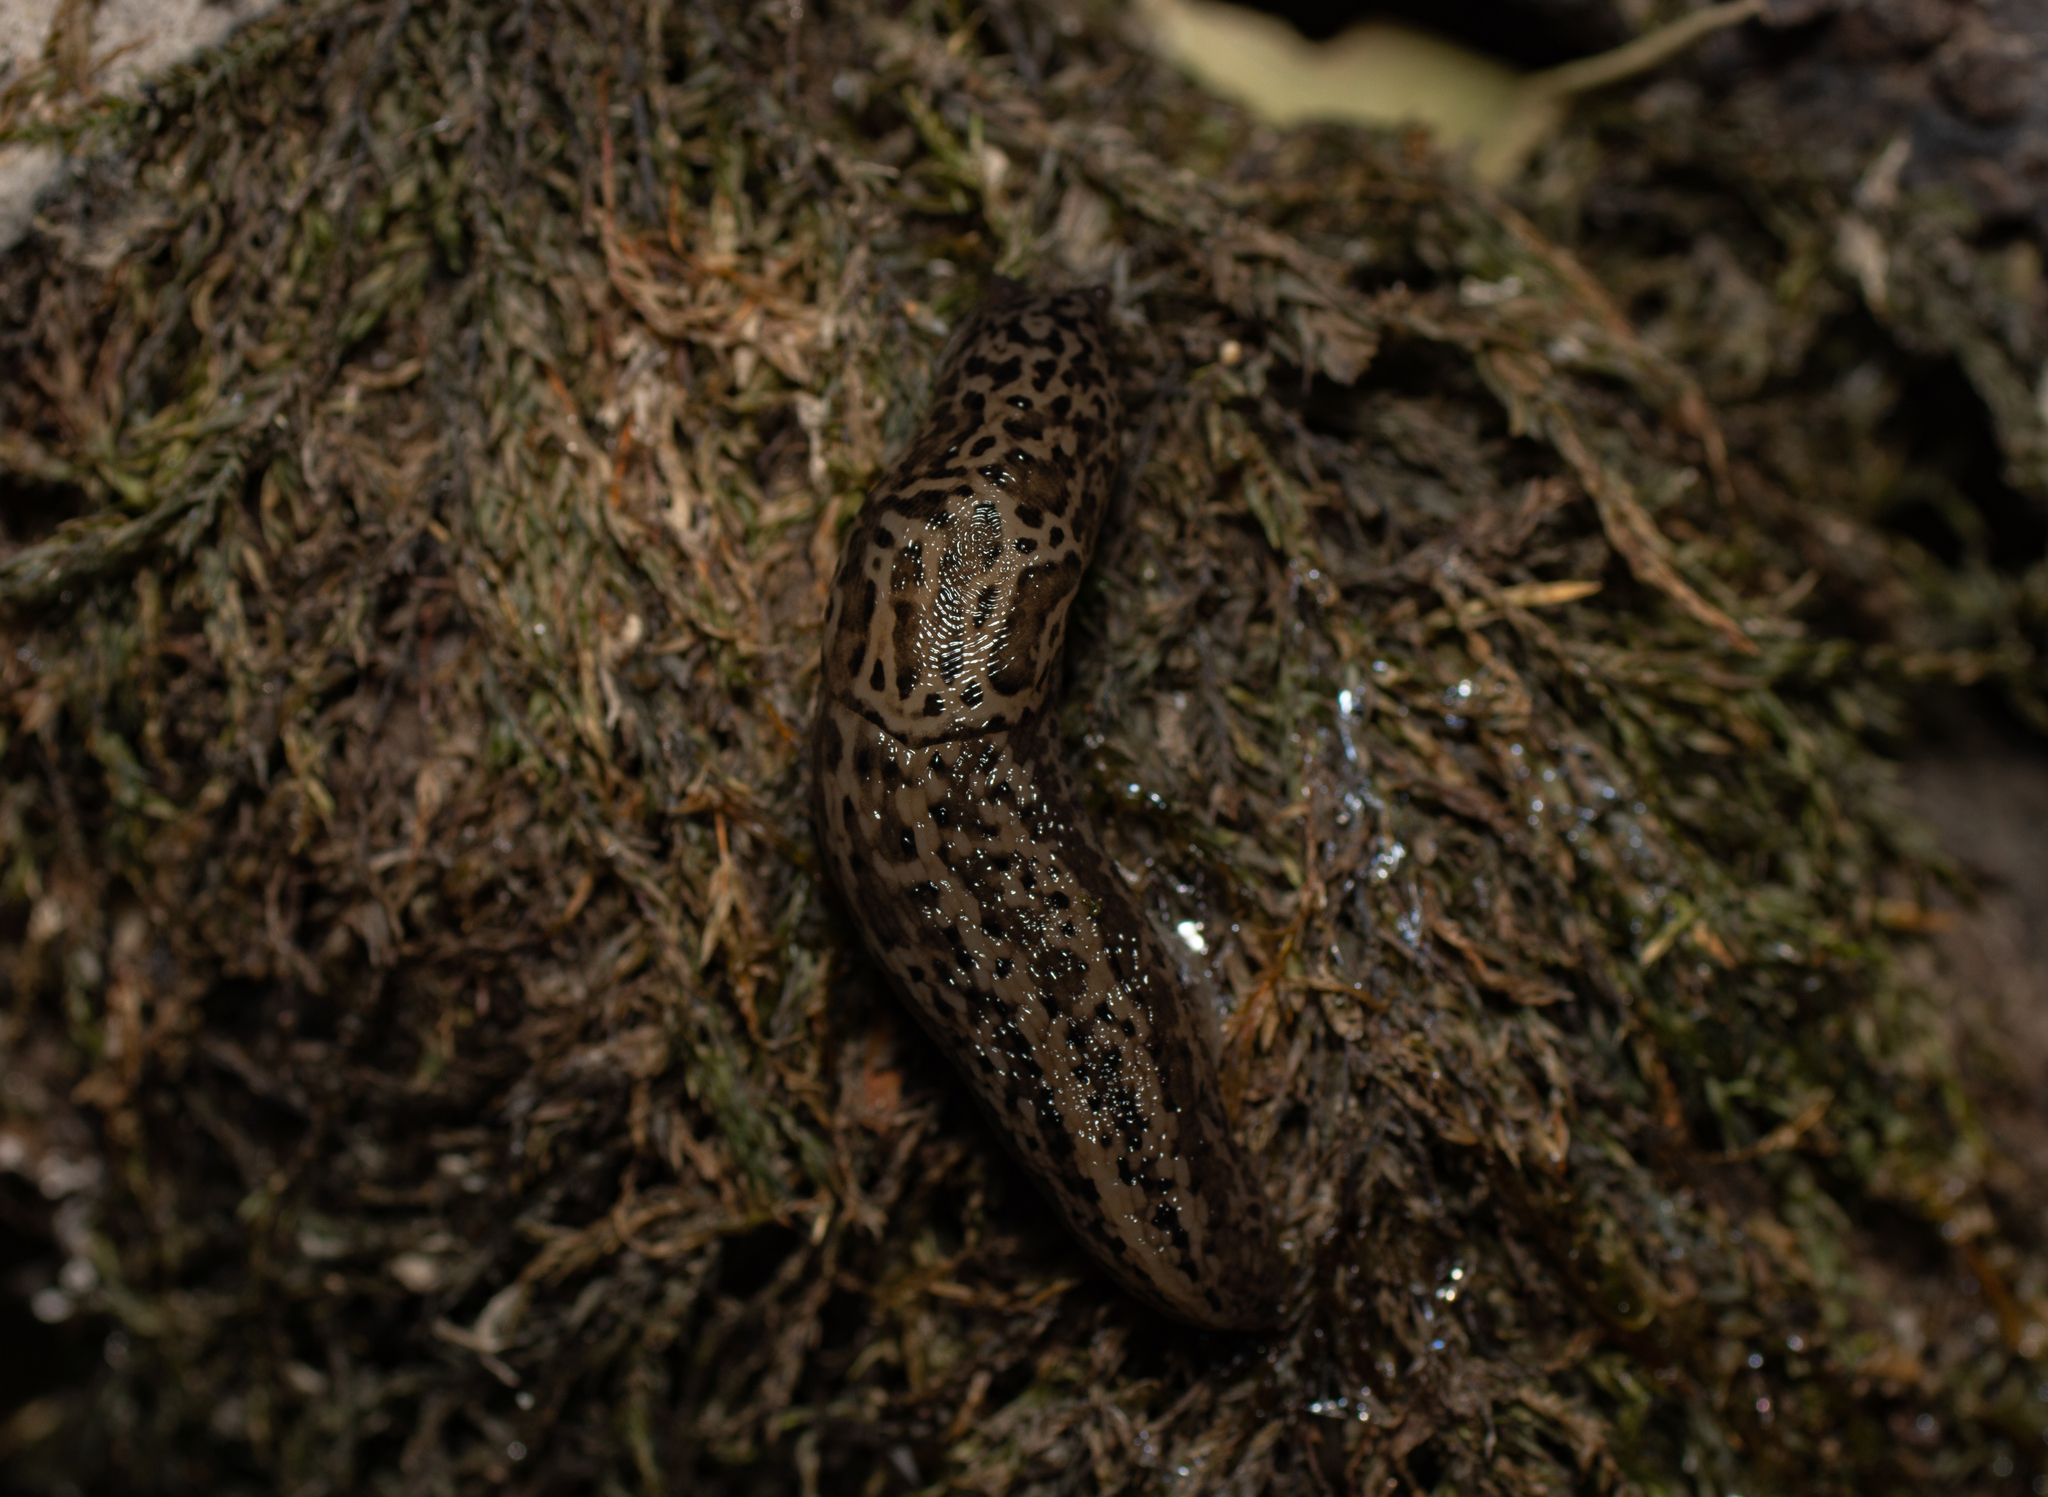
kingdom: Animalia
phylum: Mollusca
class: Gastropoda
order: Stylommatophora
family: Limacidae
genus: Limax
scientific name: Limax maximus
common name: Great grey slug
